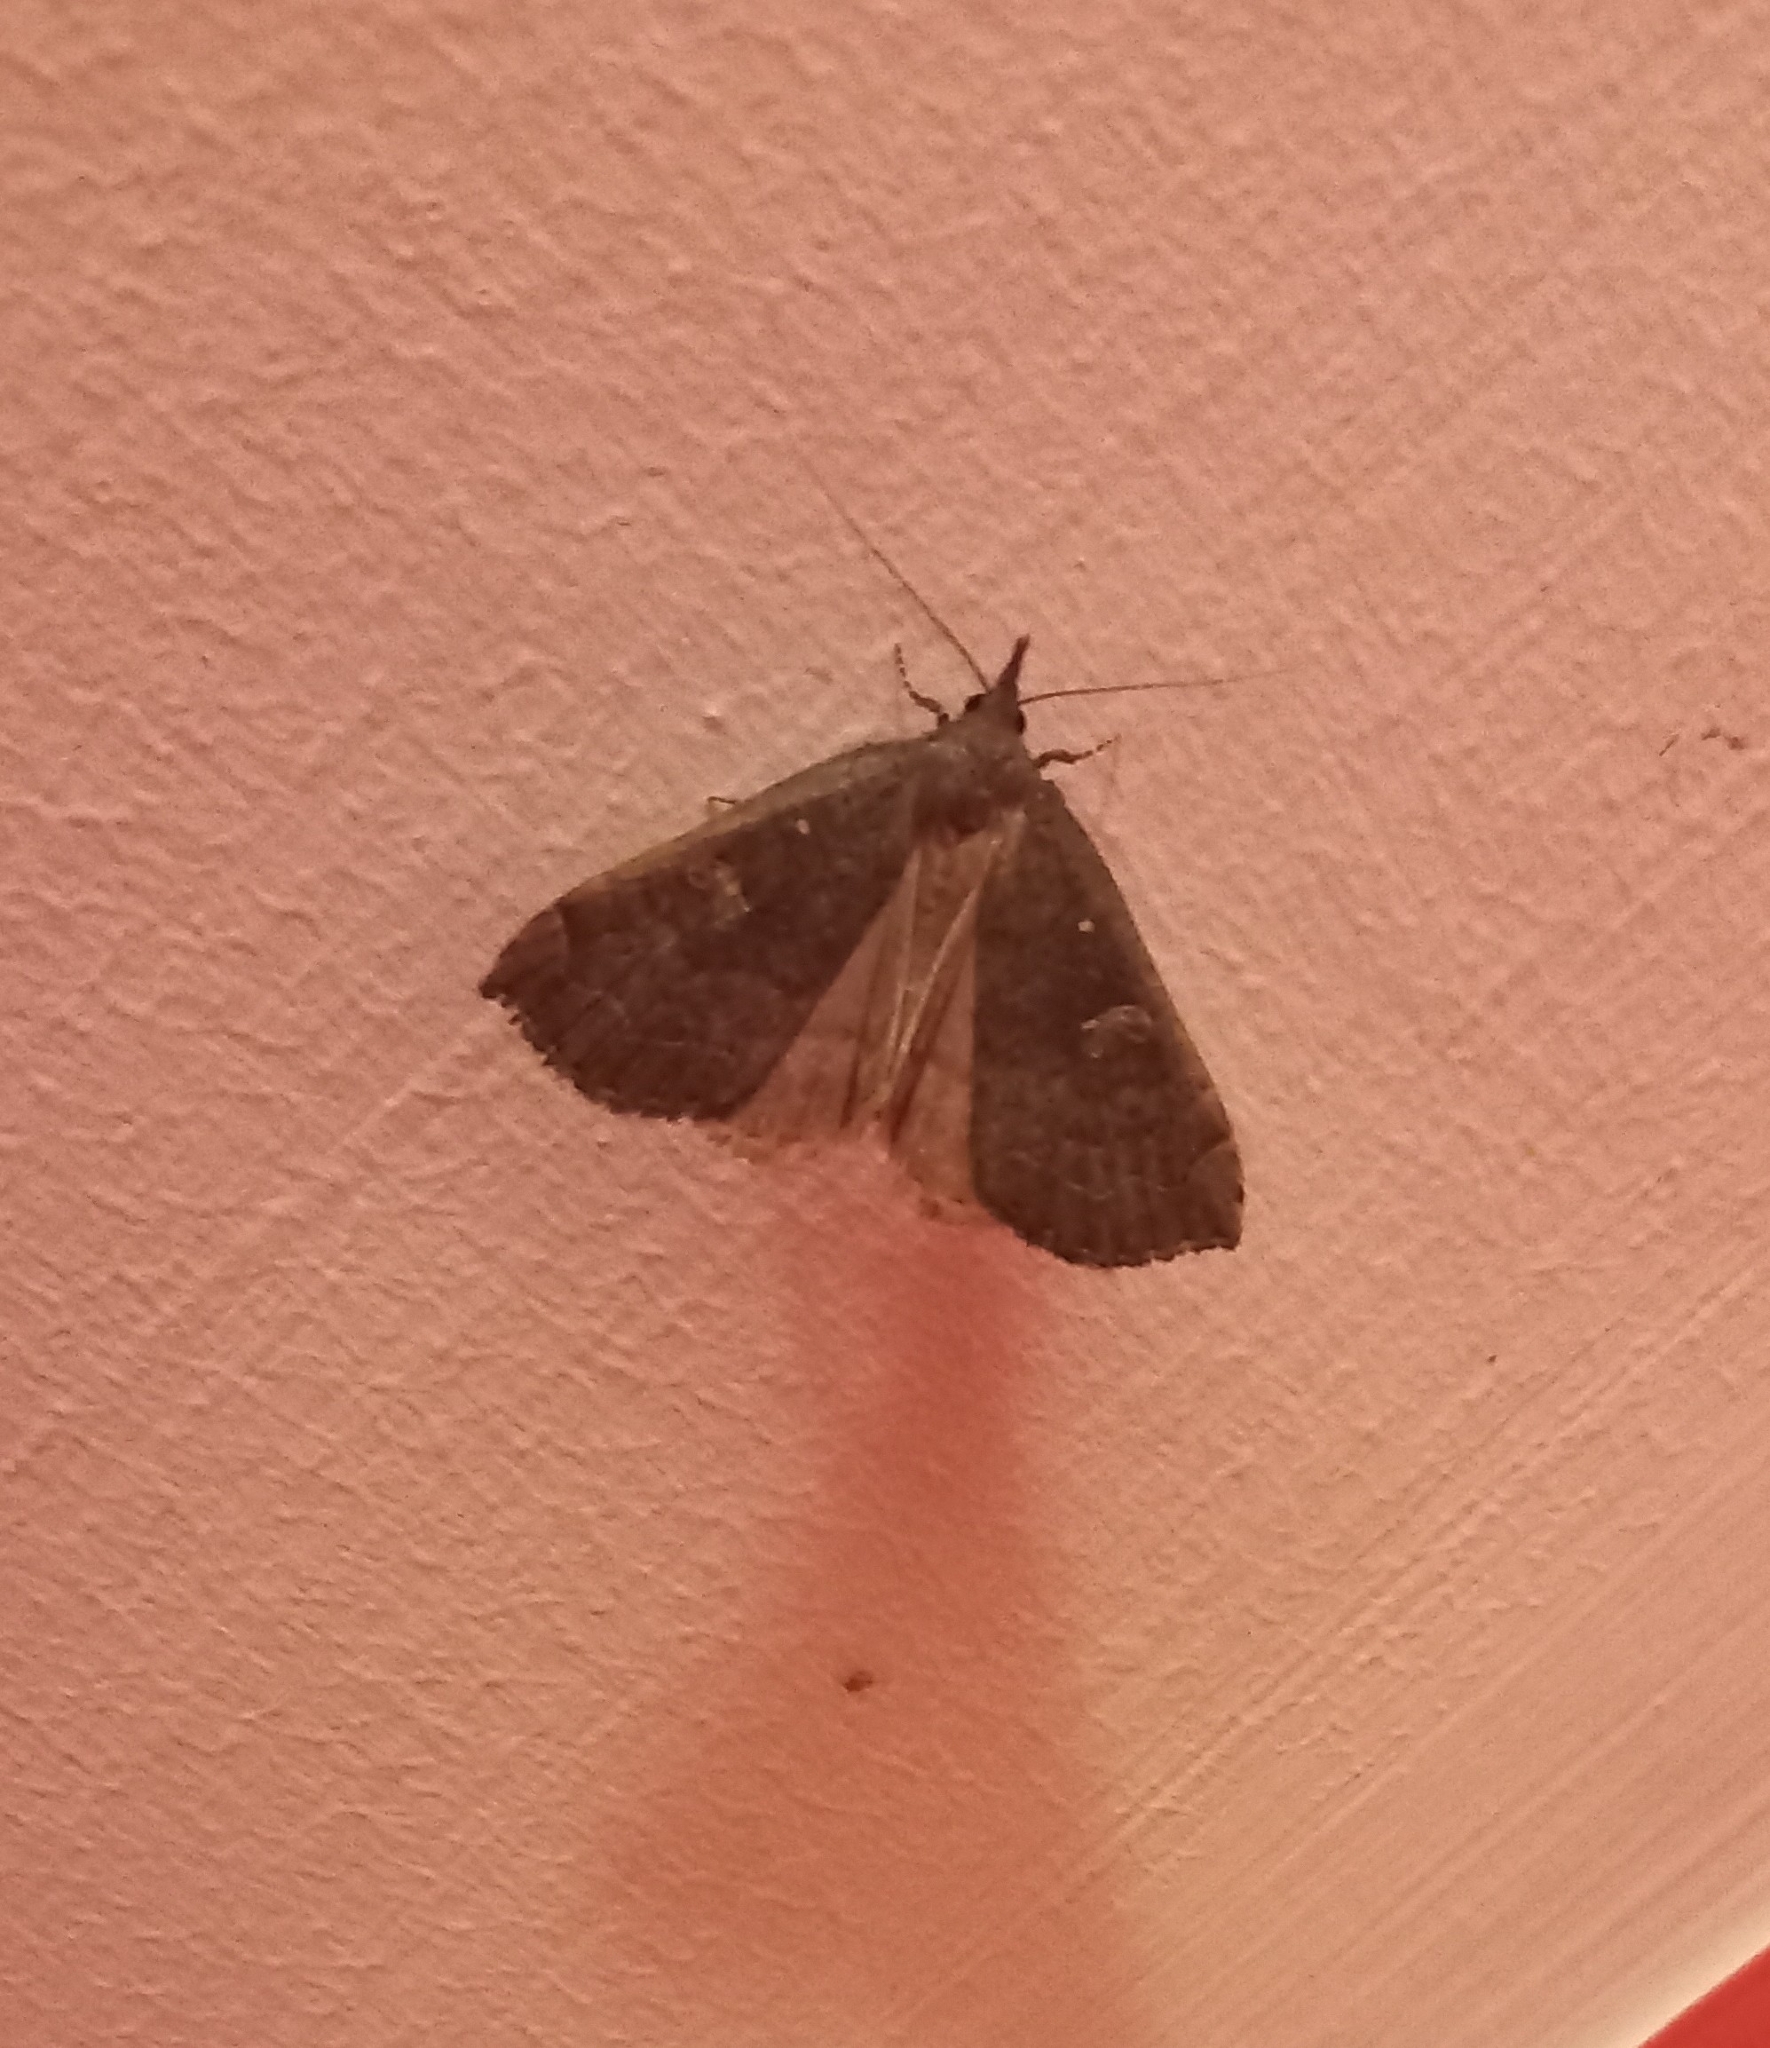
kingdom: Animalia
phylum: Arthropoda
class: Insecta
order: Lepidoptera
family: Erebidae
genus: Rhapsa
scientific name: Rhapsa scotosialis
